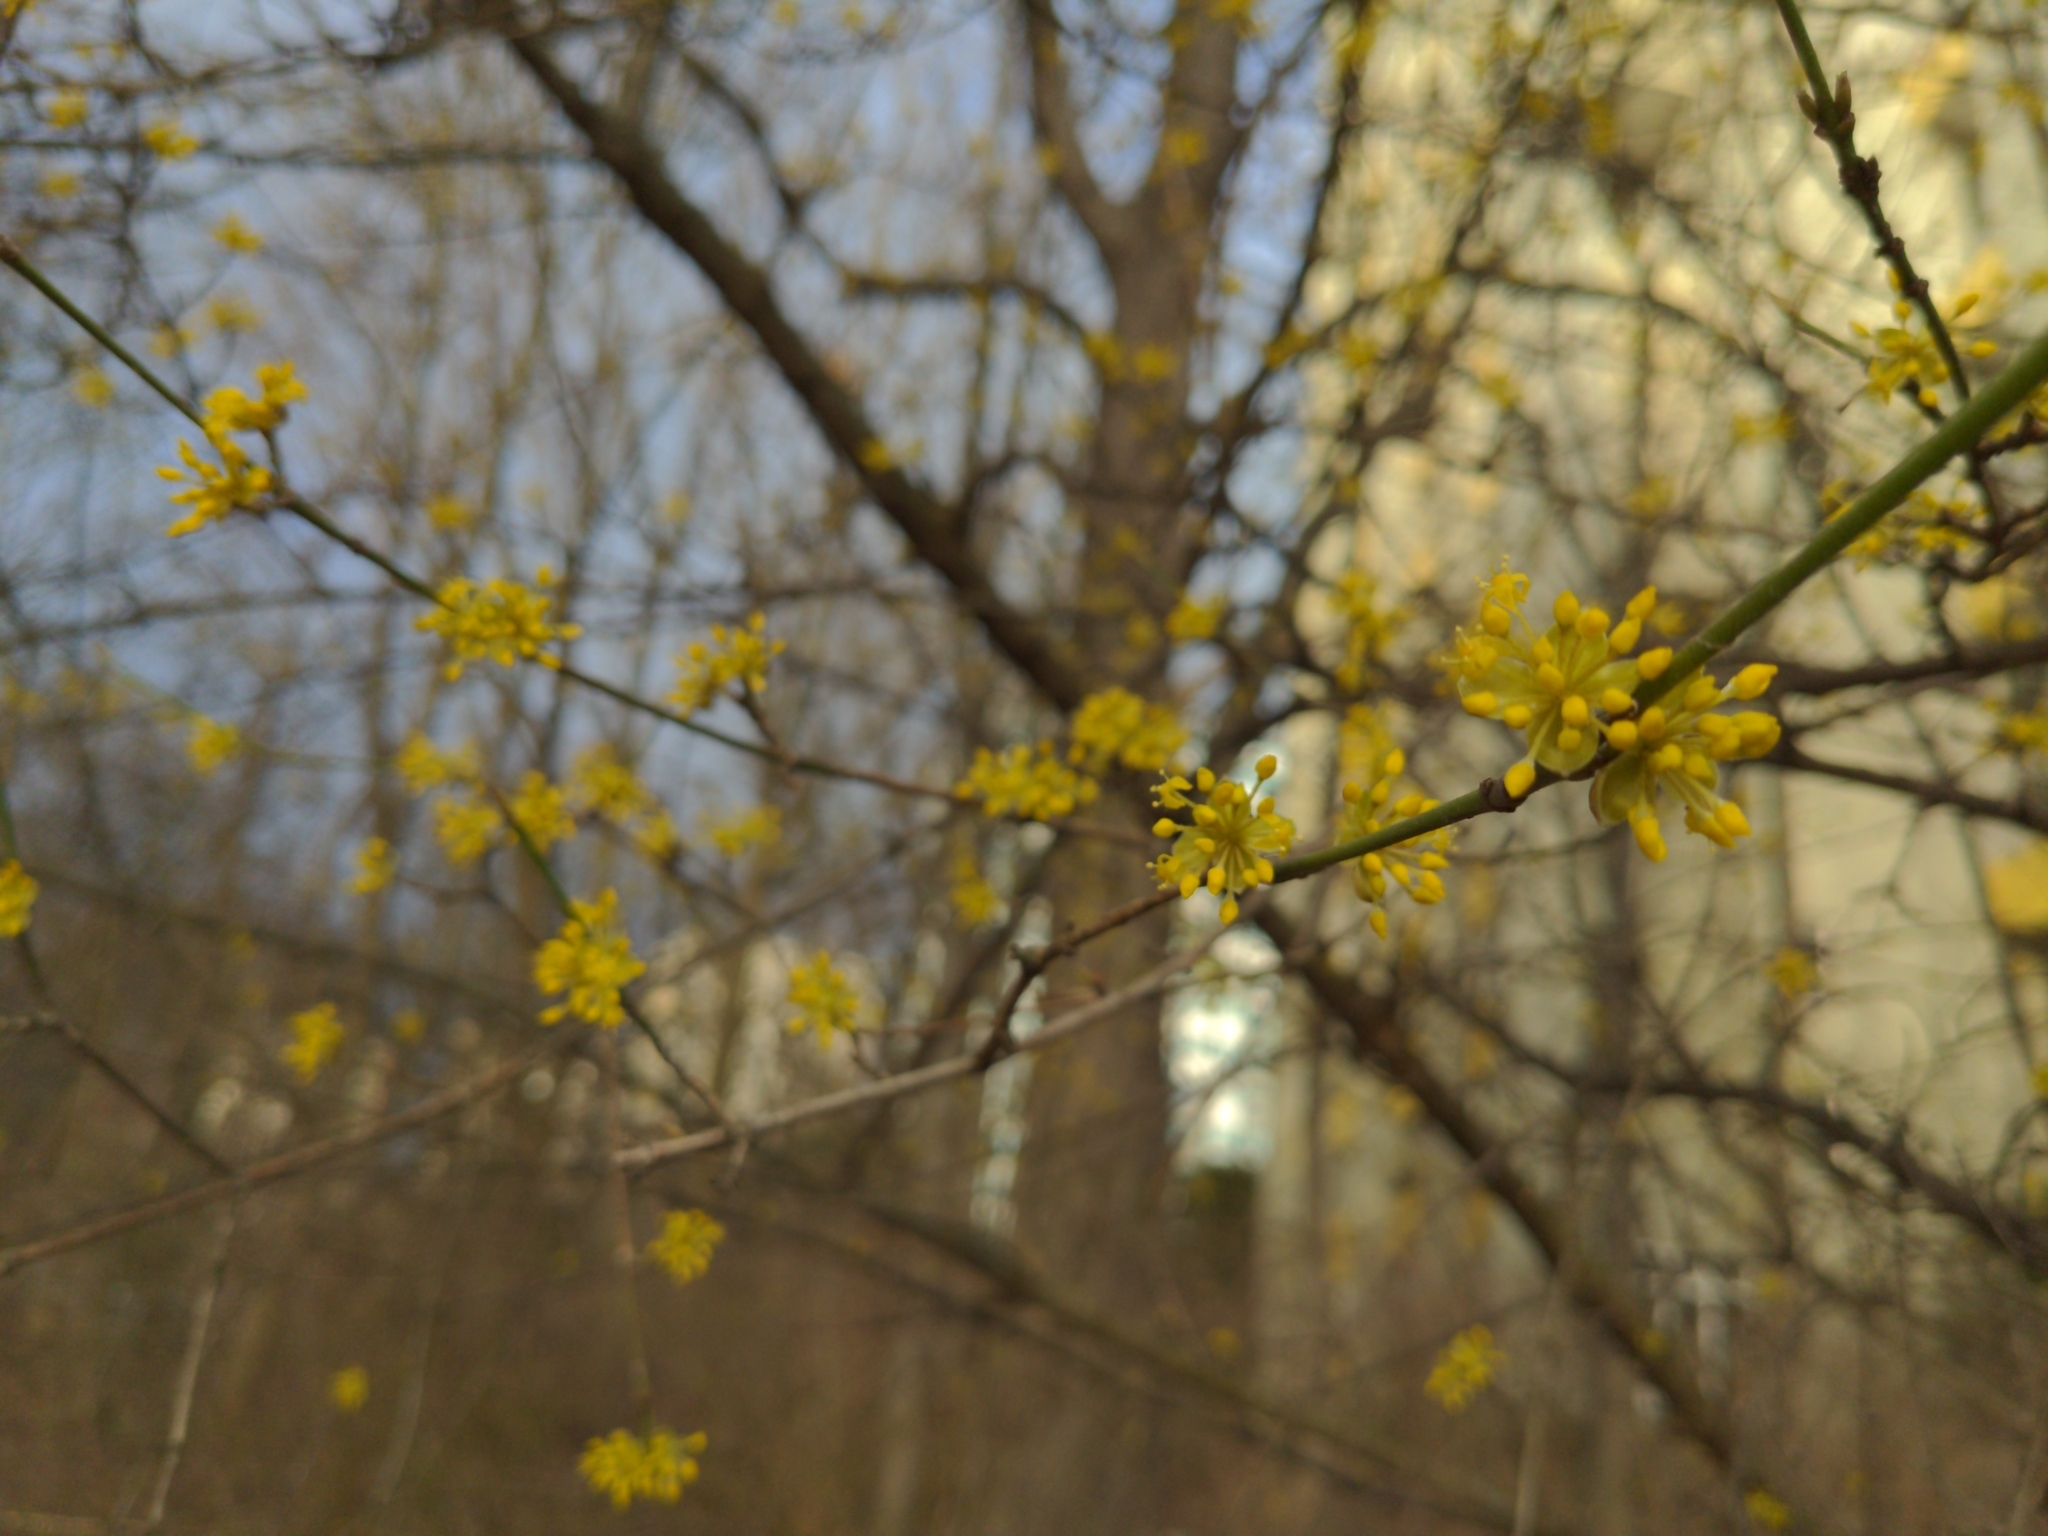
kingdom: Plantae
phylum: Tracheophyta
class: Magnoliopsida
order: Cornales
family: Cornaceae
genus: Cornus
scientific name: Cornus mas
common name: Cornelian-cherry
